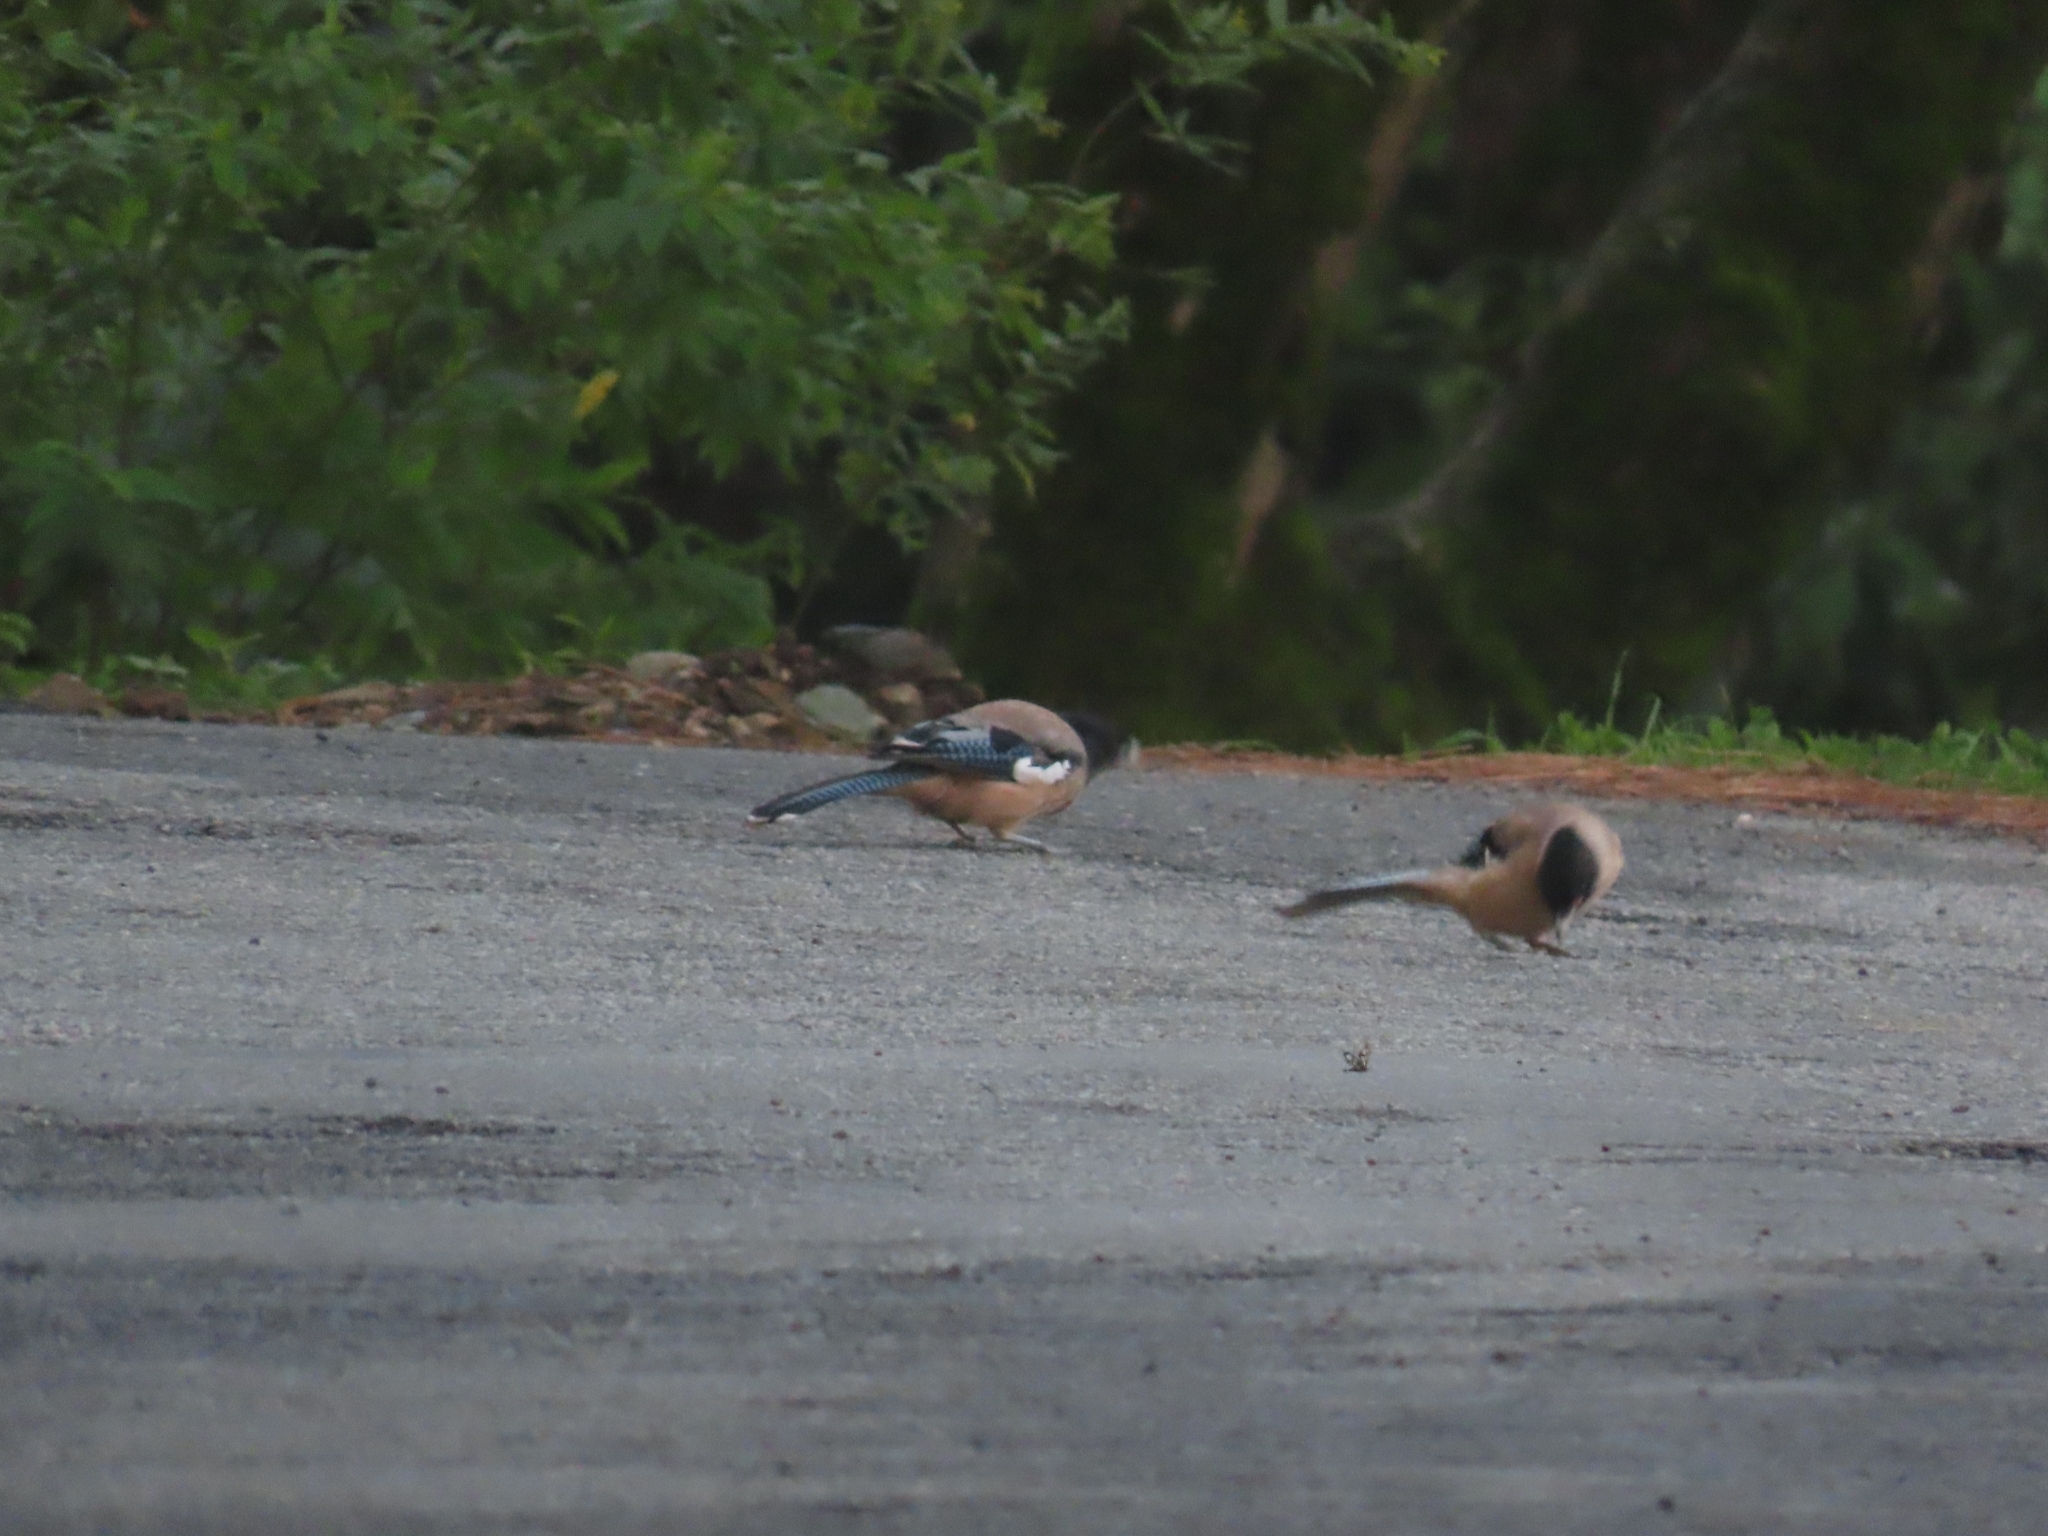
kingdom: Animalia
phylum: Chordata
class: Aves
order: Passeriformes
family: Corvidae
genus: Garrulus
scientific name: Garrulus lanceolatus
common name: Black-headed jay
